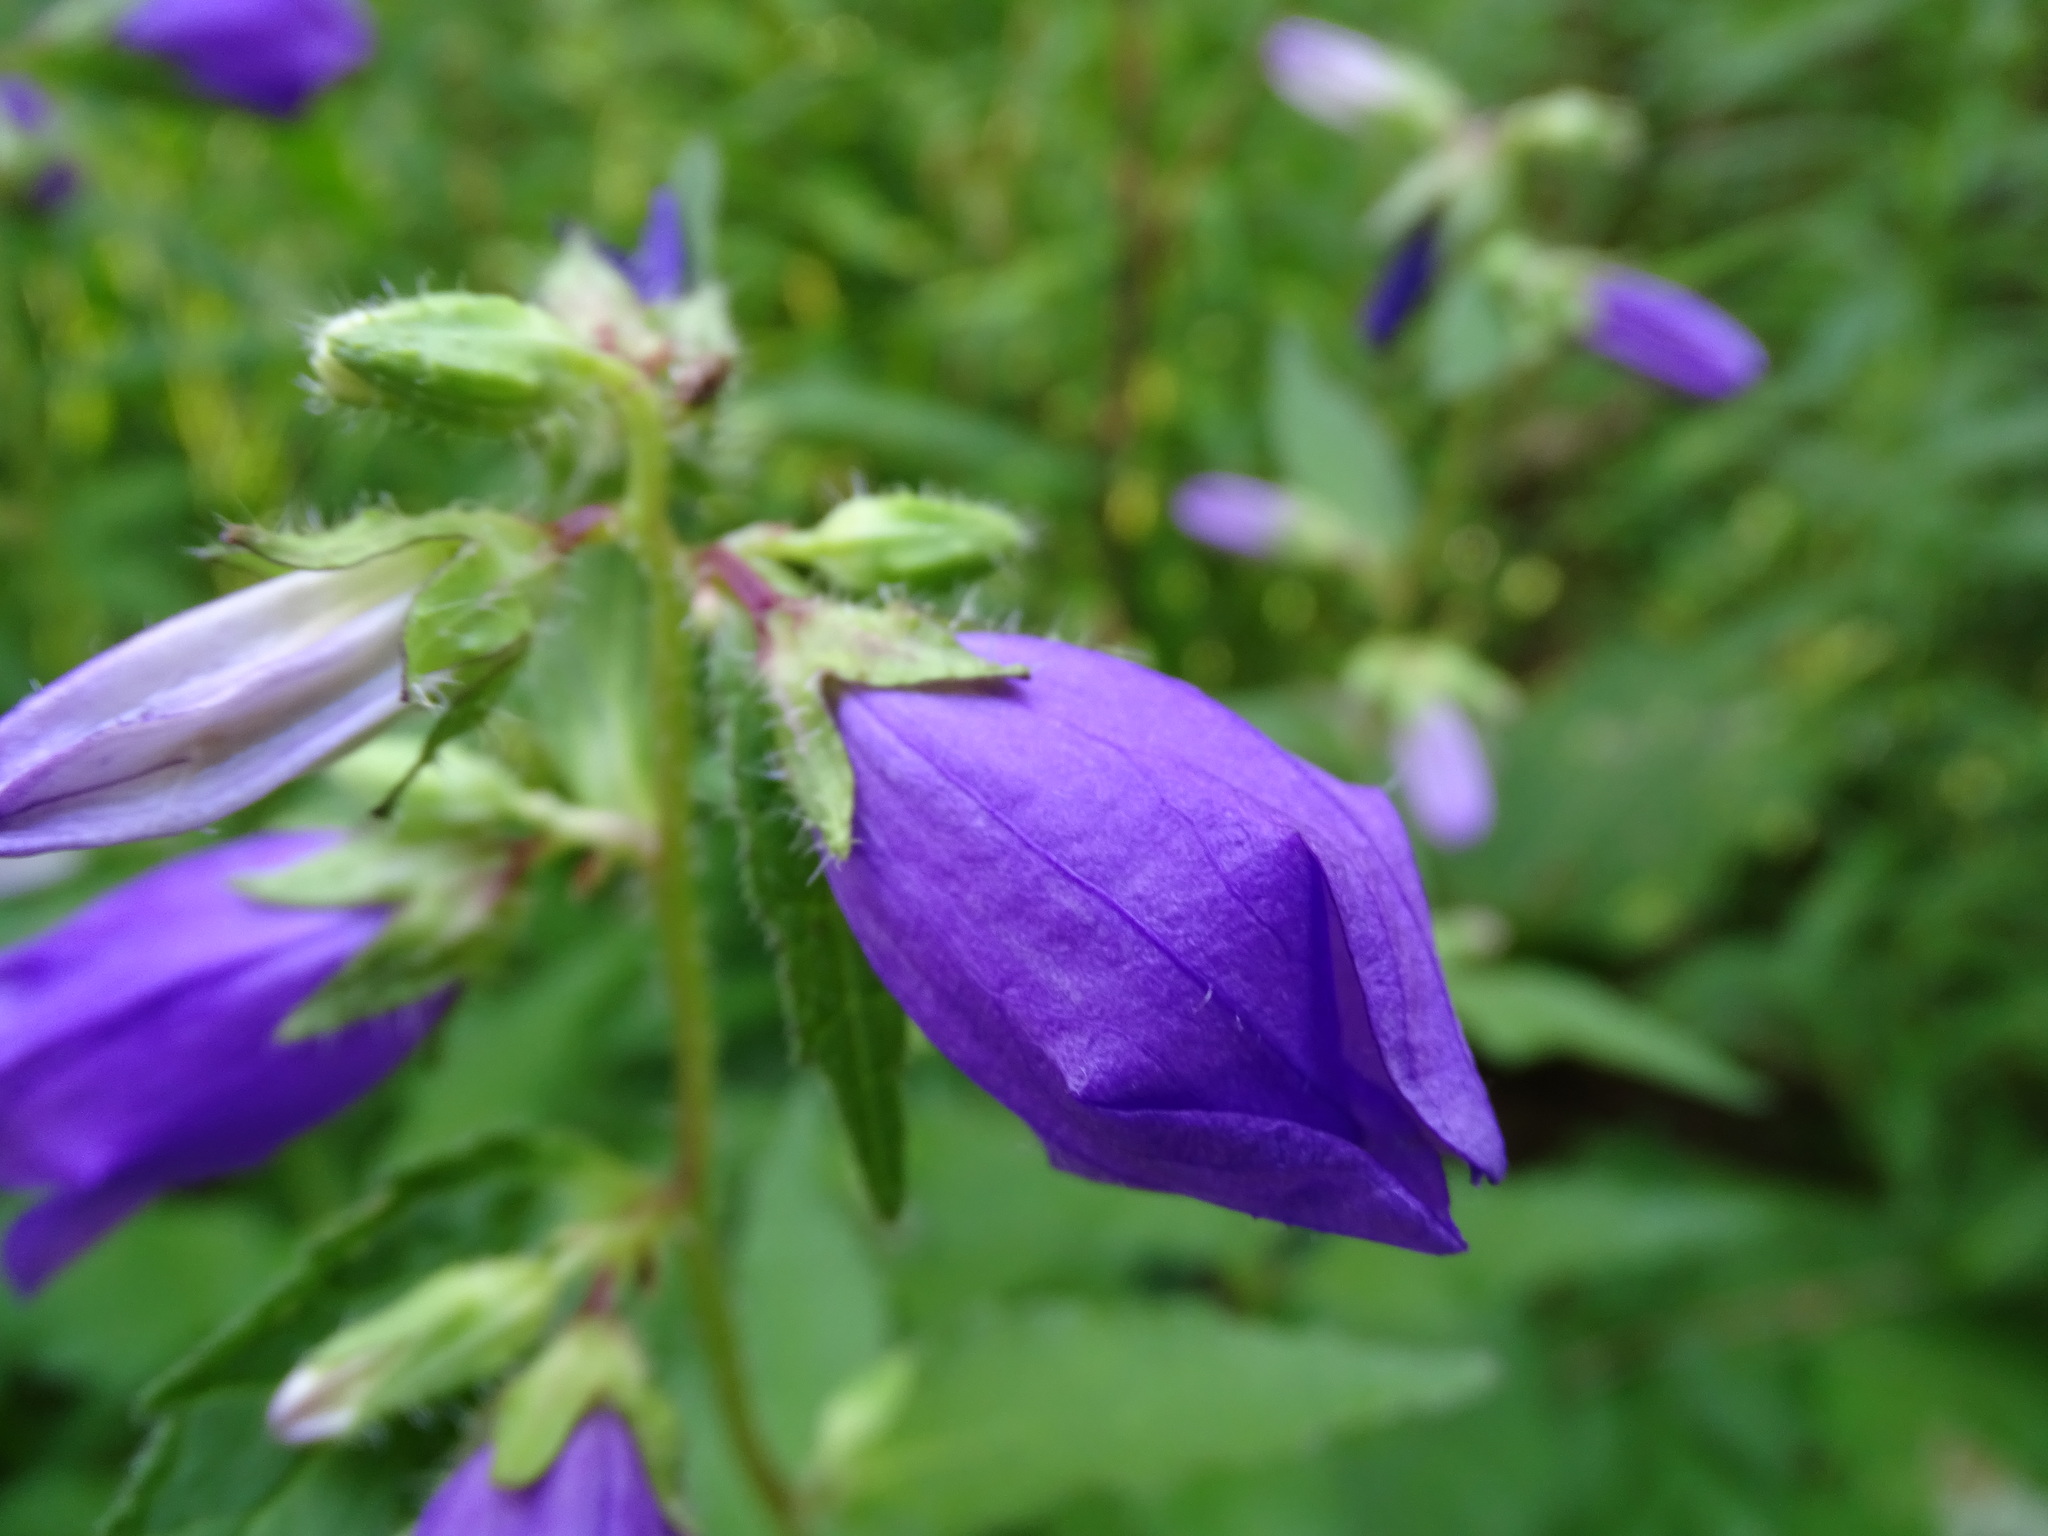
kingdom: Plantae
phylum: Tracheophyta
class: Magnoliopsida
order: Asterales
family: Campanulaceae
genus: Campanula
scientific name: Campanula trachelium
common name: Nettle-leaved bellflower
